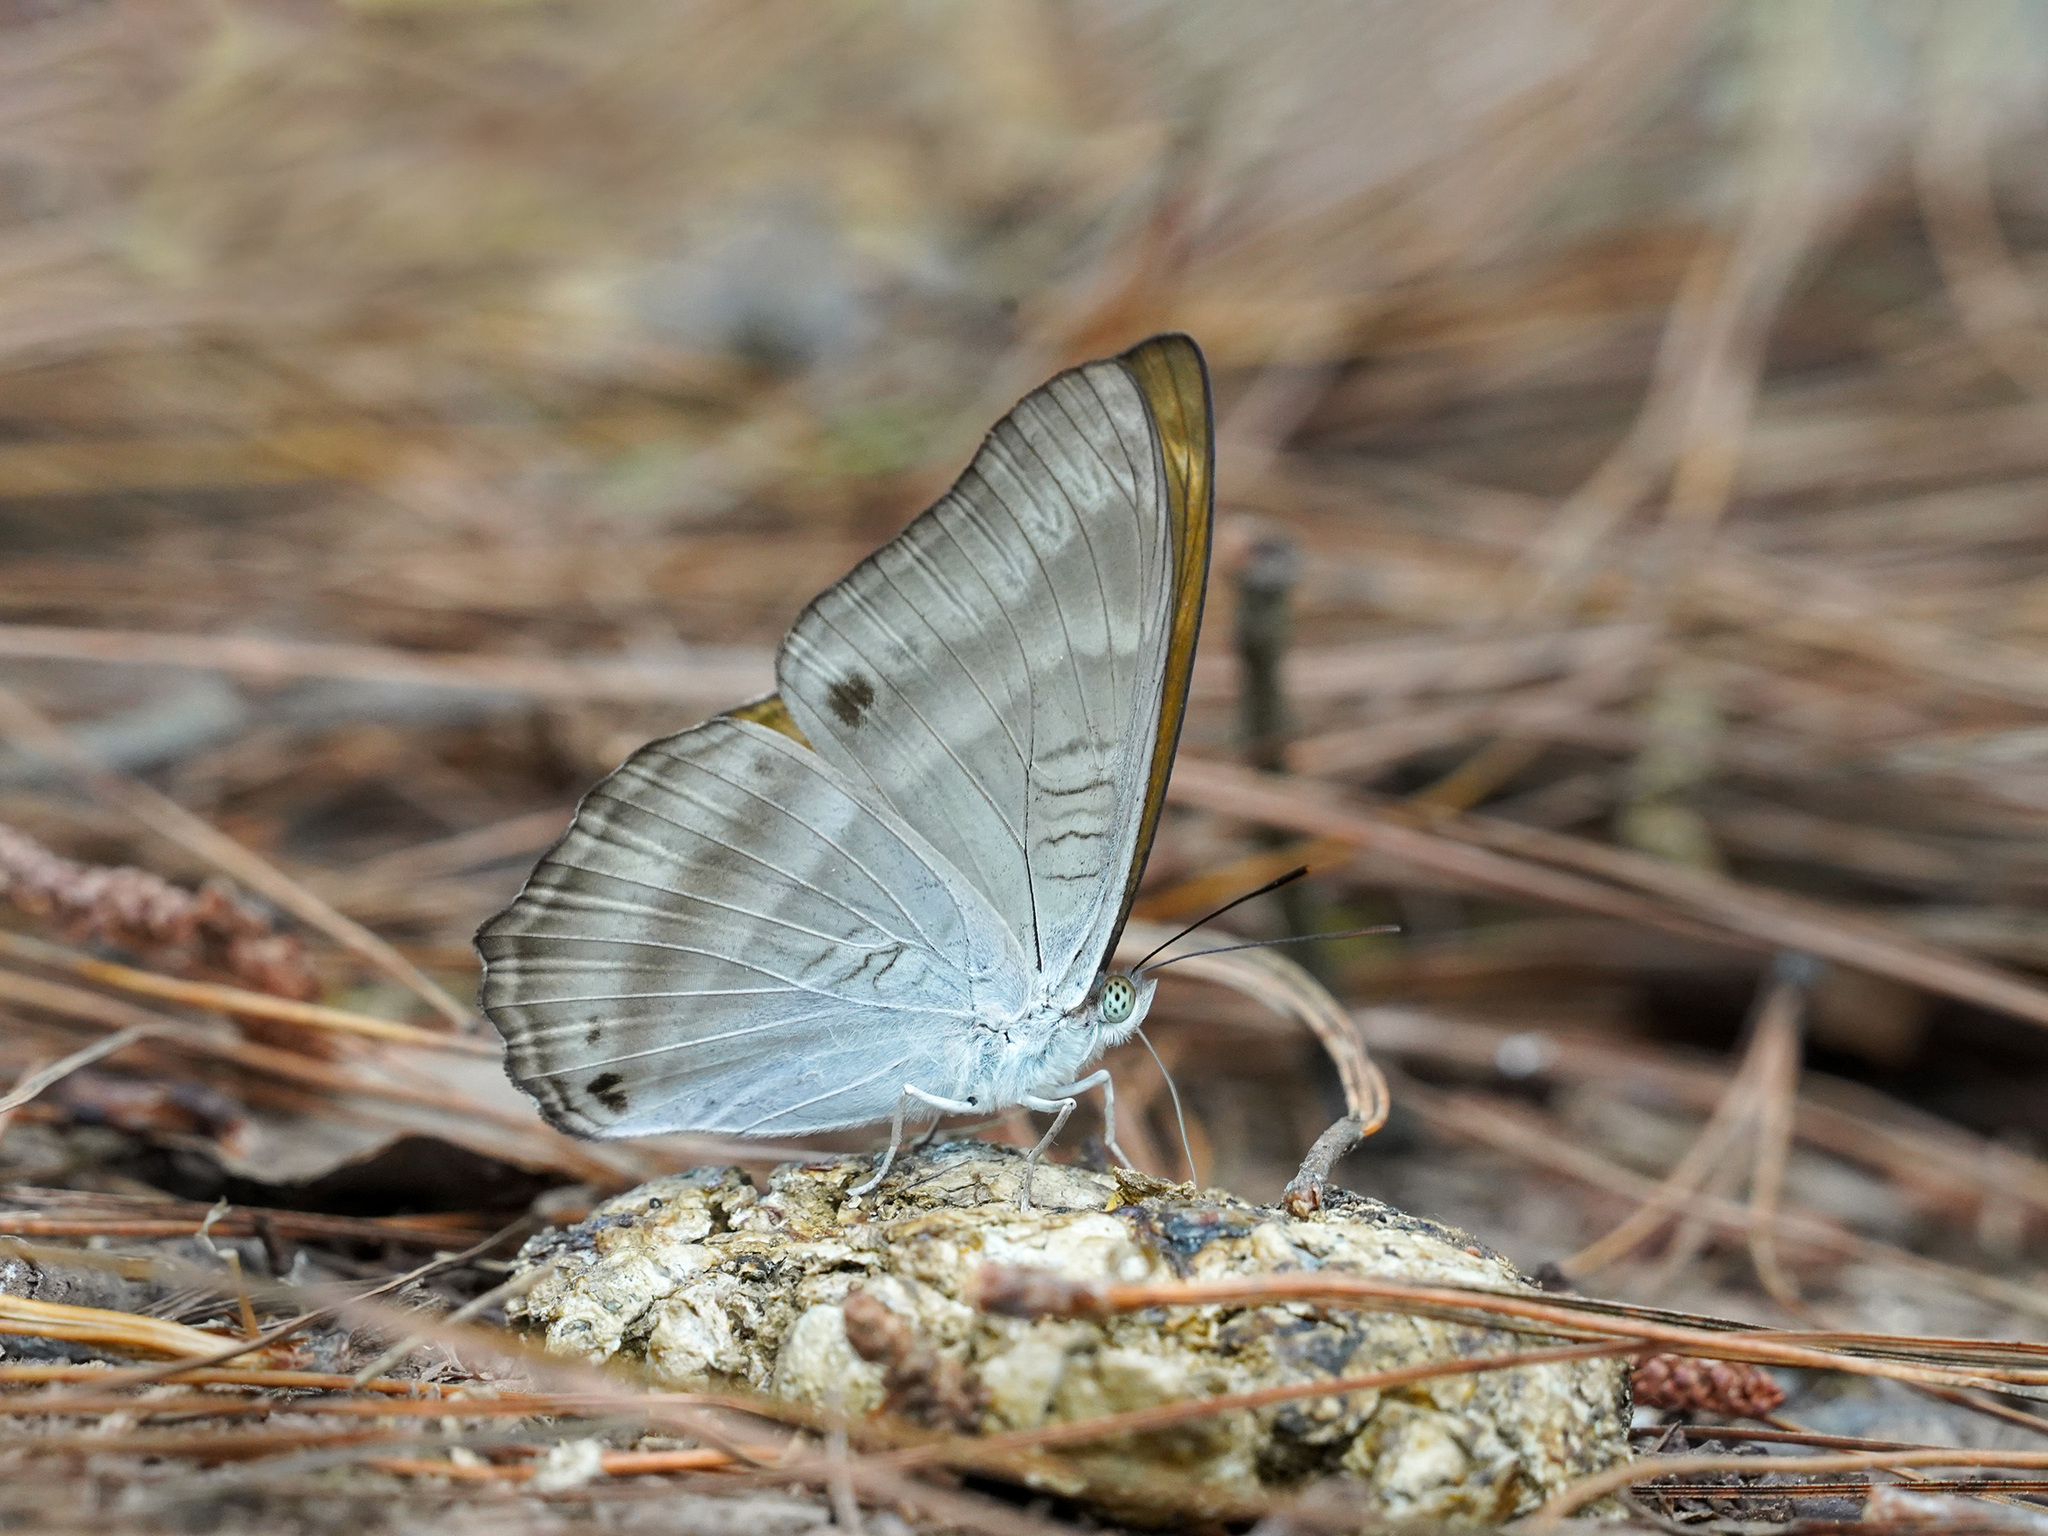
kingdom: Animalia
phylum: Arthropoda
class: Insecta
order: Lepidoptera
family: Nymphalidae
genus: Limenitis
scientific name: Limenitis Bhagadatta austenia
